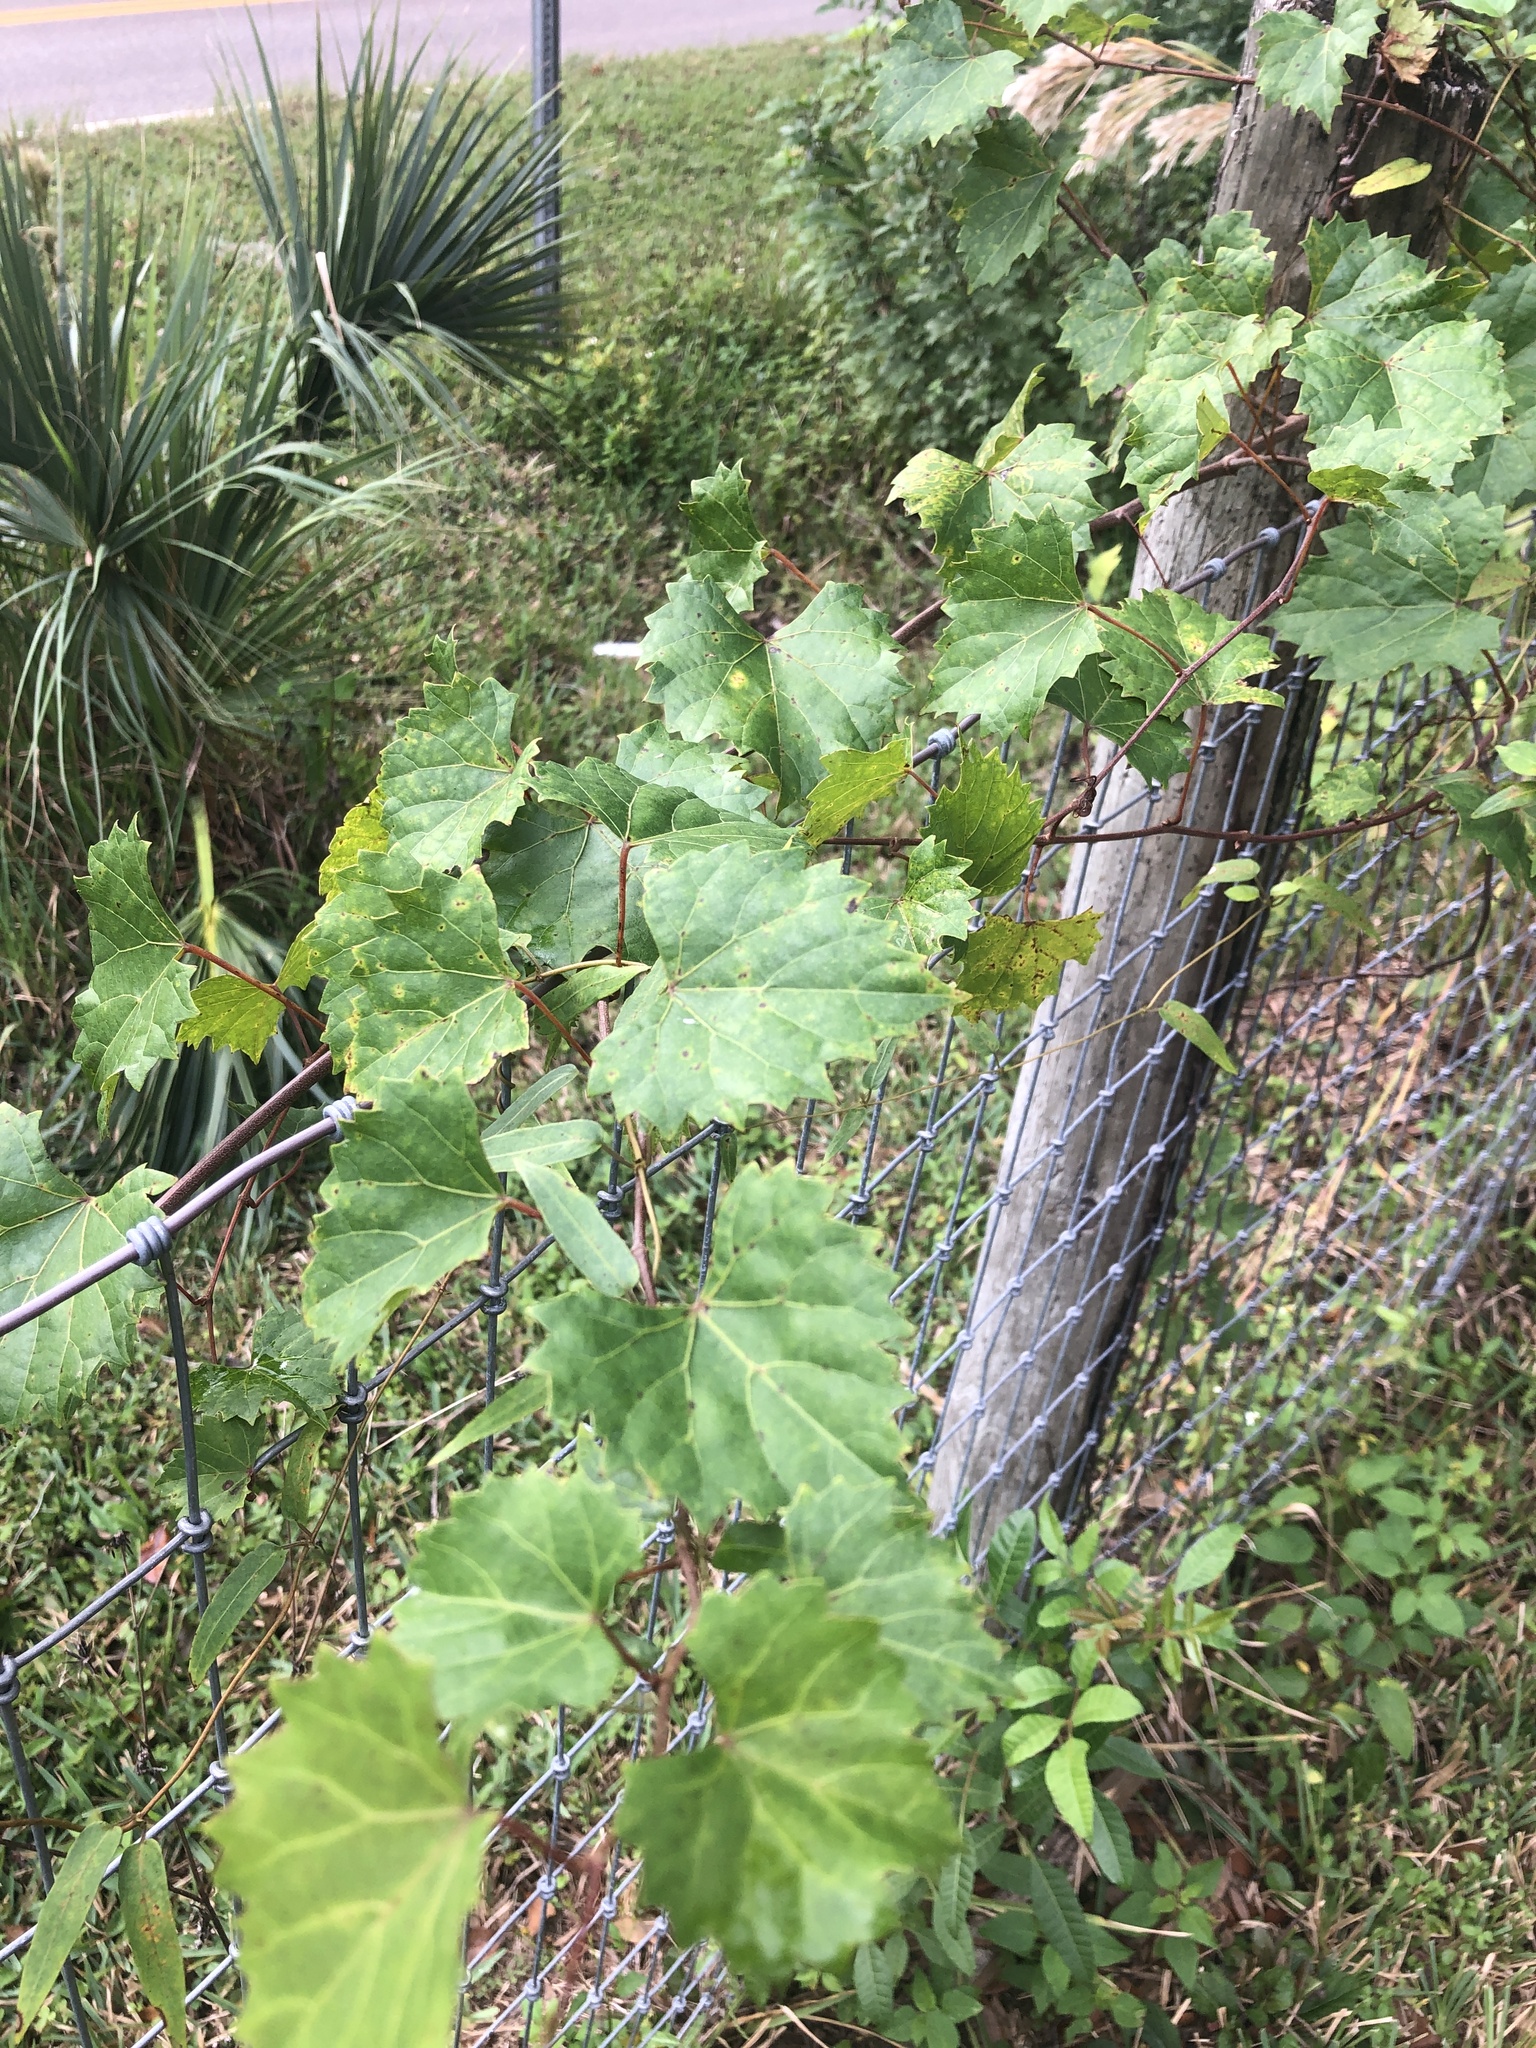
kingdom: Plantae
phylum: Tracheophyta
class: Magnoliopsida
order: Vitales
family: Vitaceae
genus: Vitis
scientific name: Vitis rotundifolia
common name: Muscadine grape
